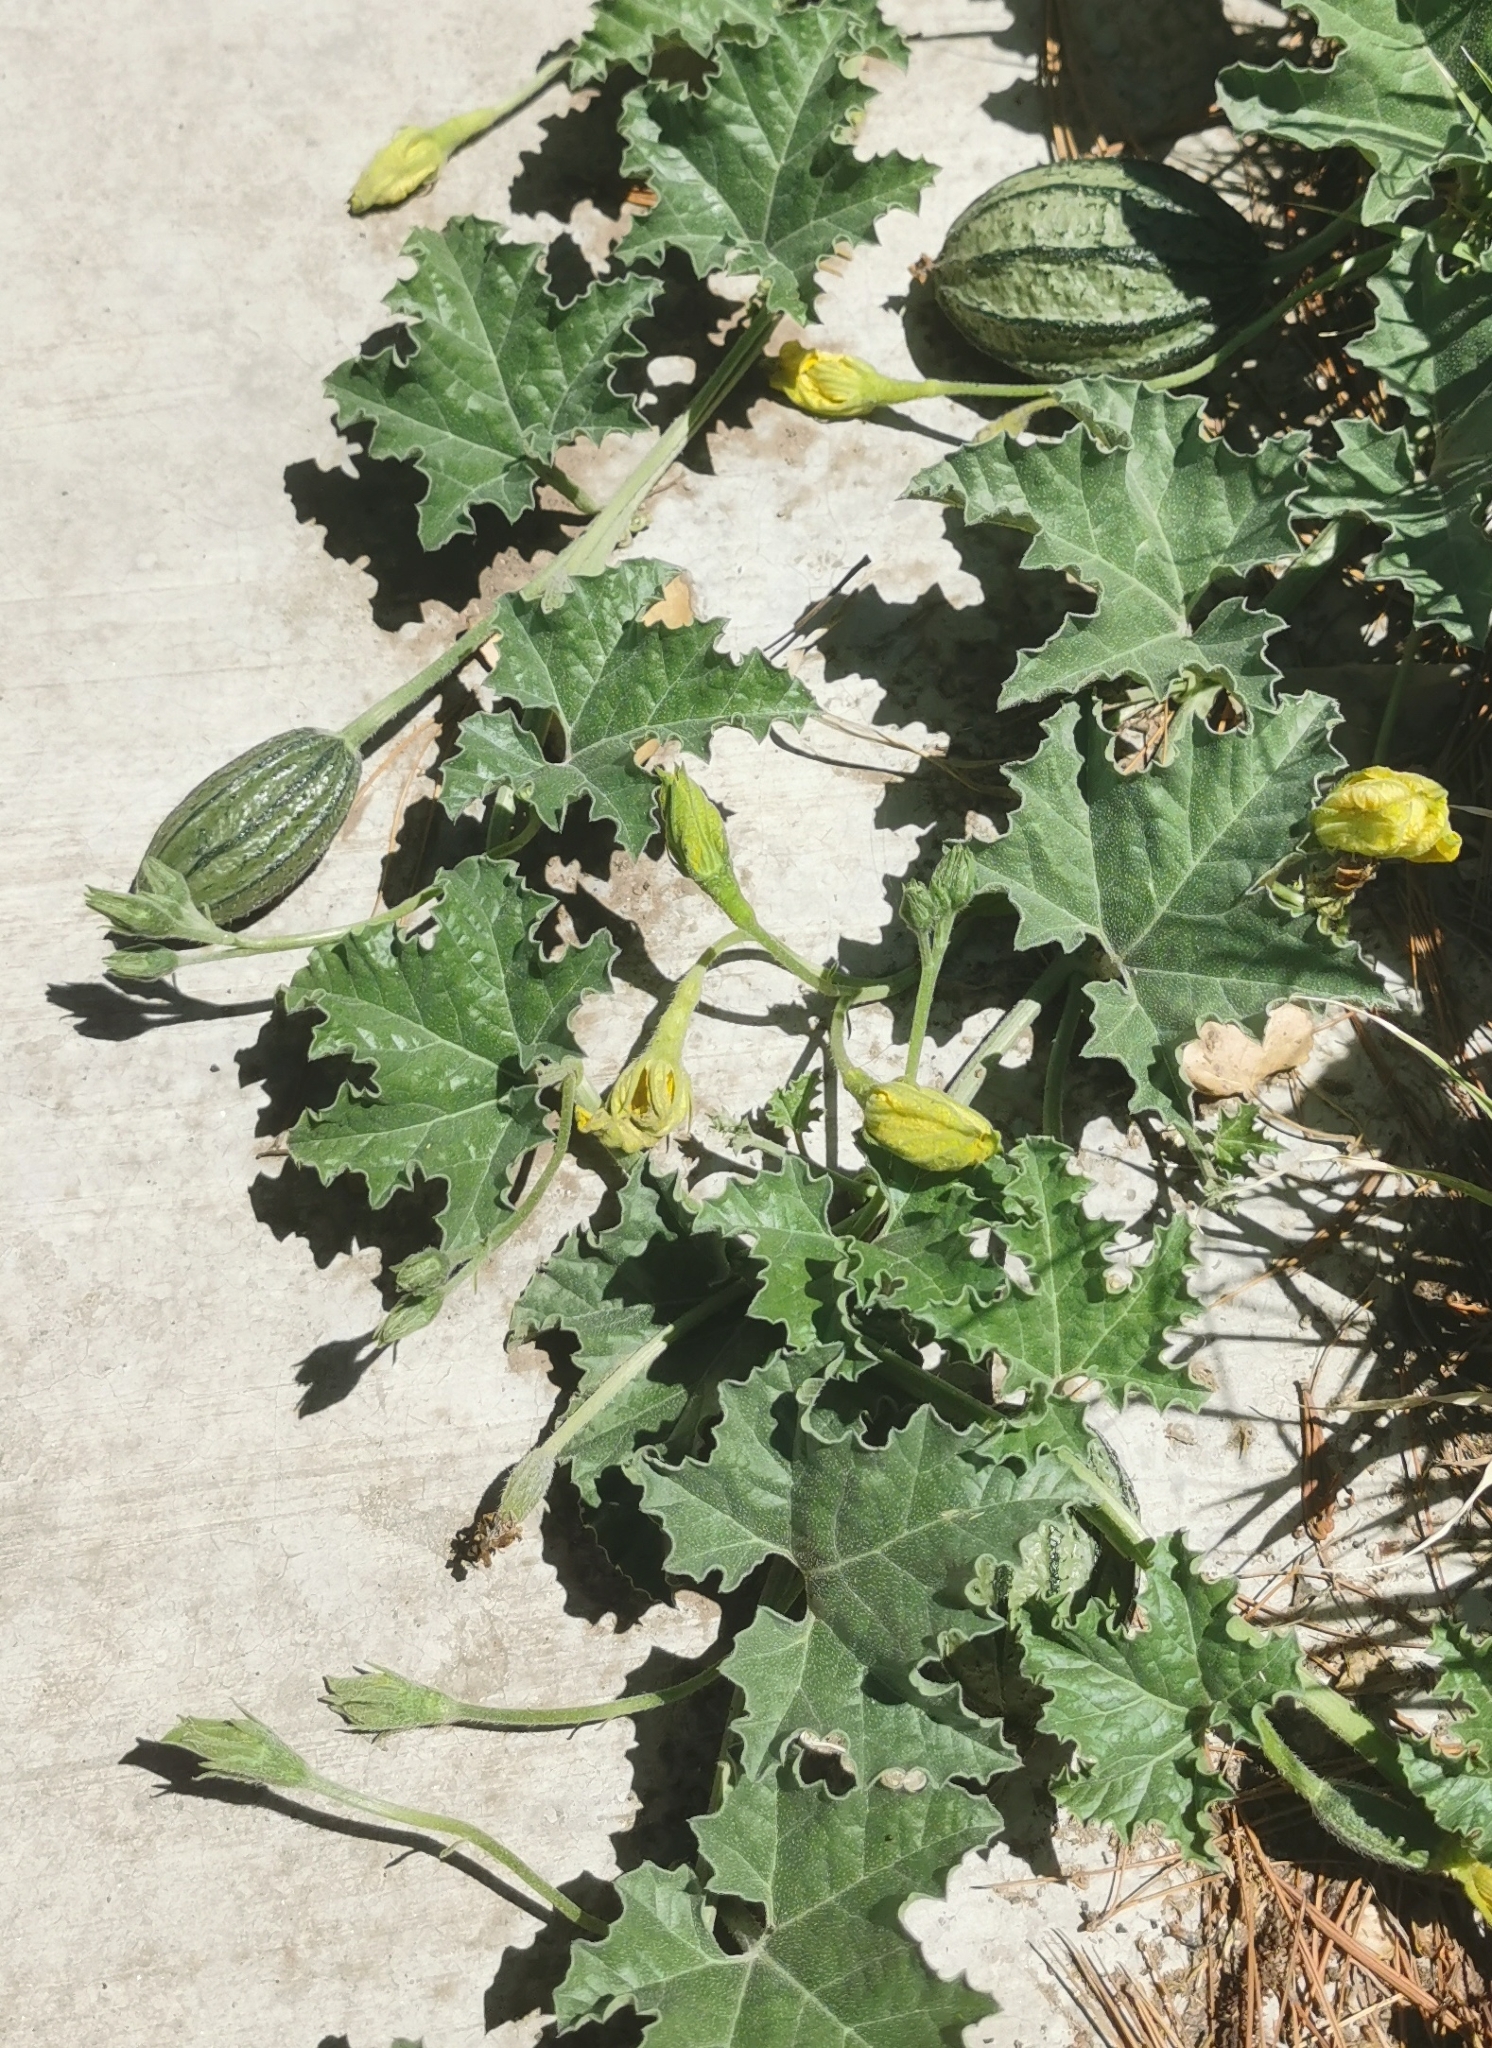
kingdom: Plantae
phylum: Tracheophyta
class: Magnoliopsida
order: Cucurbitales
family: Cucurbitaceae
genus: Apodanthera
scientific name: Apodanthera undulata
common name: Melon-loco
